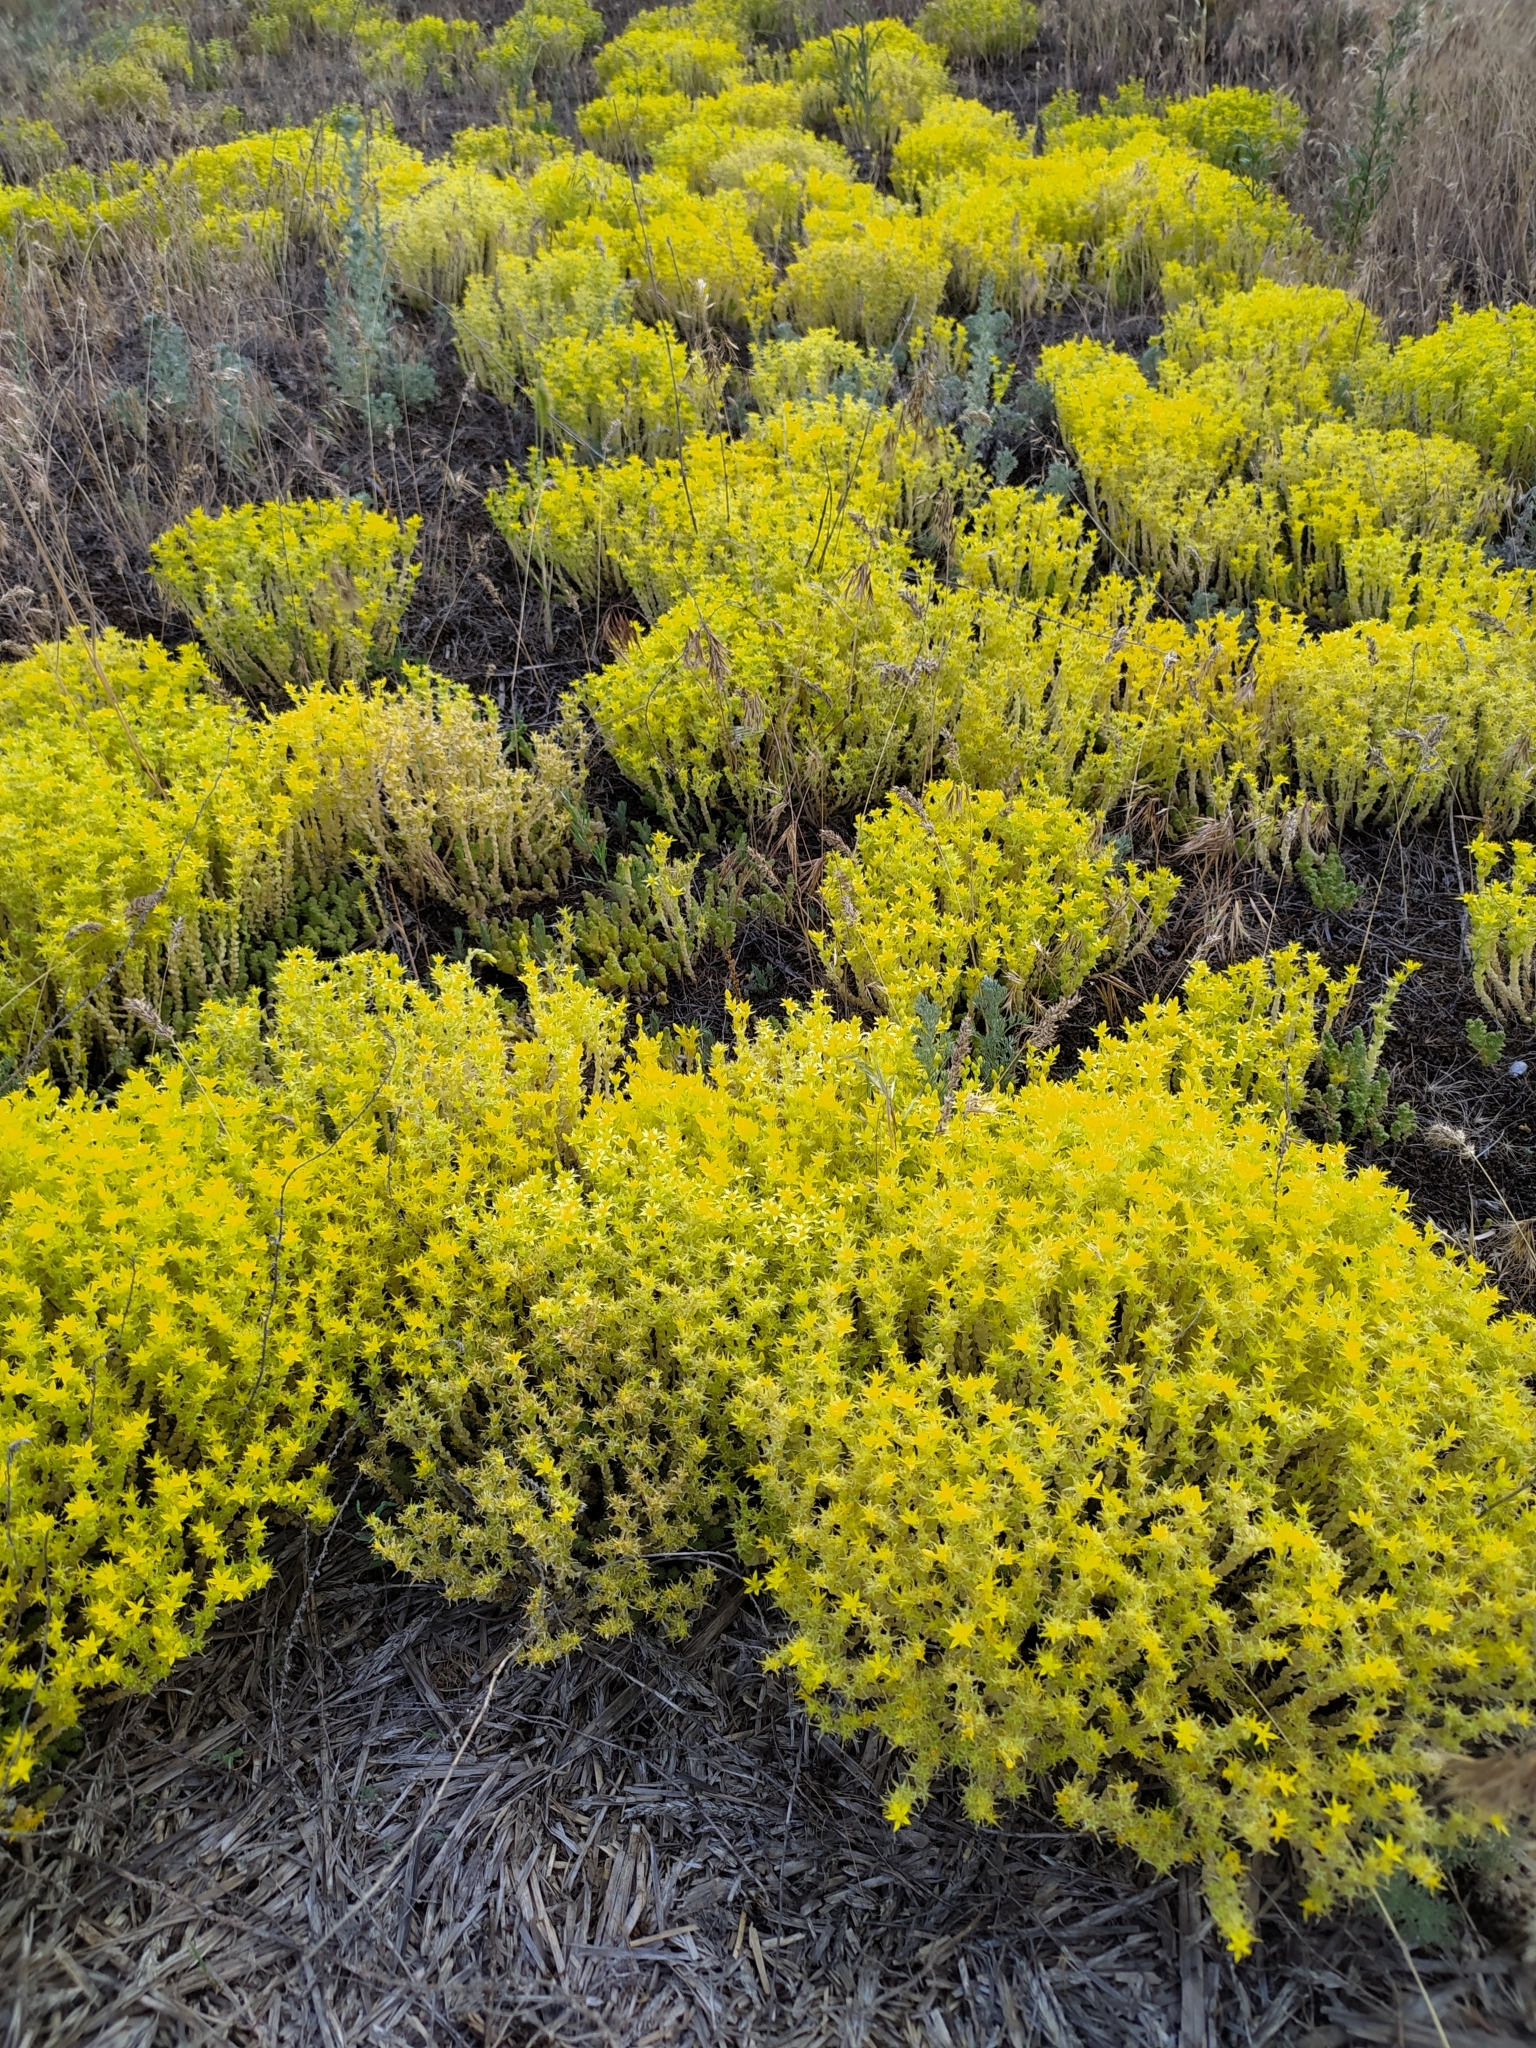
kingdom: Plantae
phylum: Tracheophyta
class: Magnoliopsida
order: Saxifragales
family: Crassulaceae
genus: Sedum
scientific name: Sedum acre
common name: Biting stonecrop
